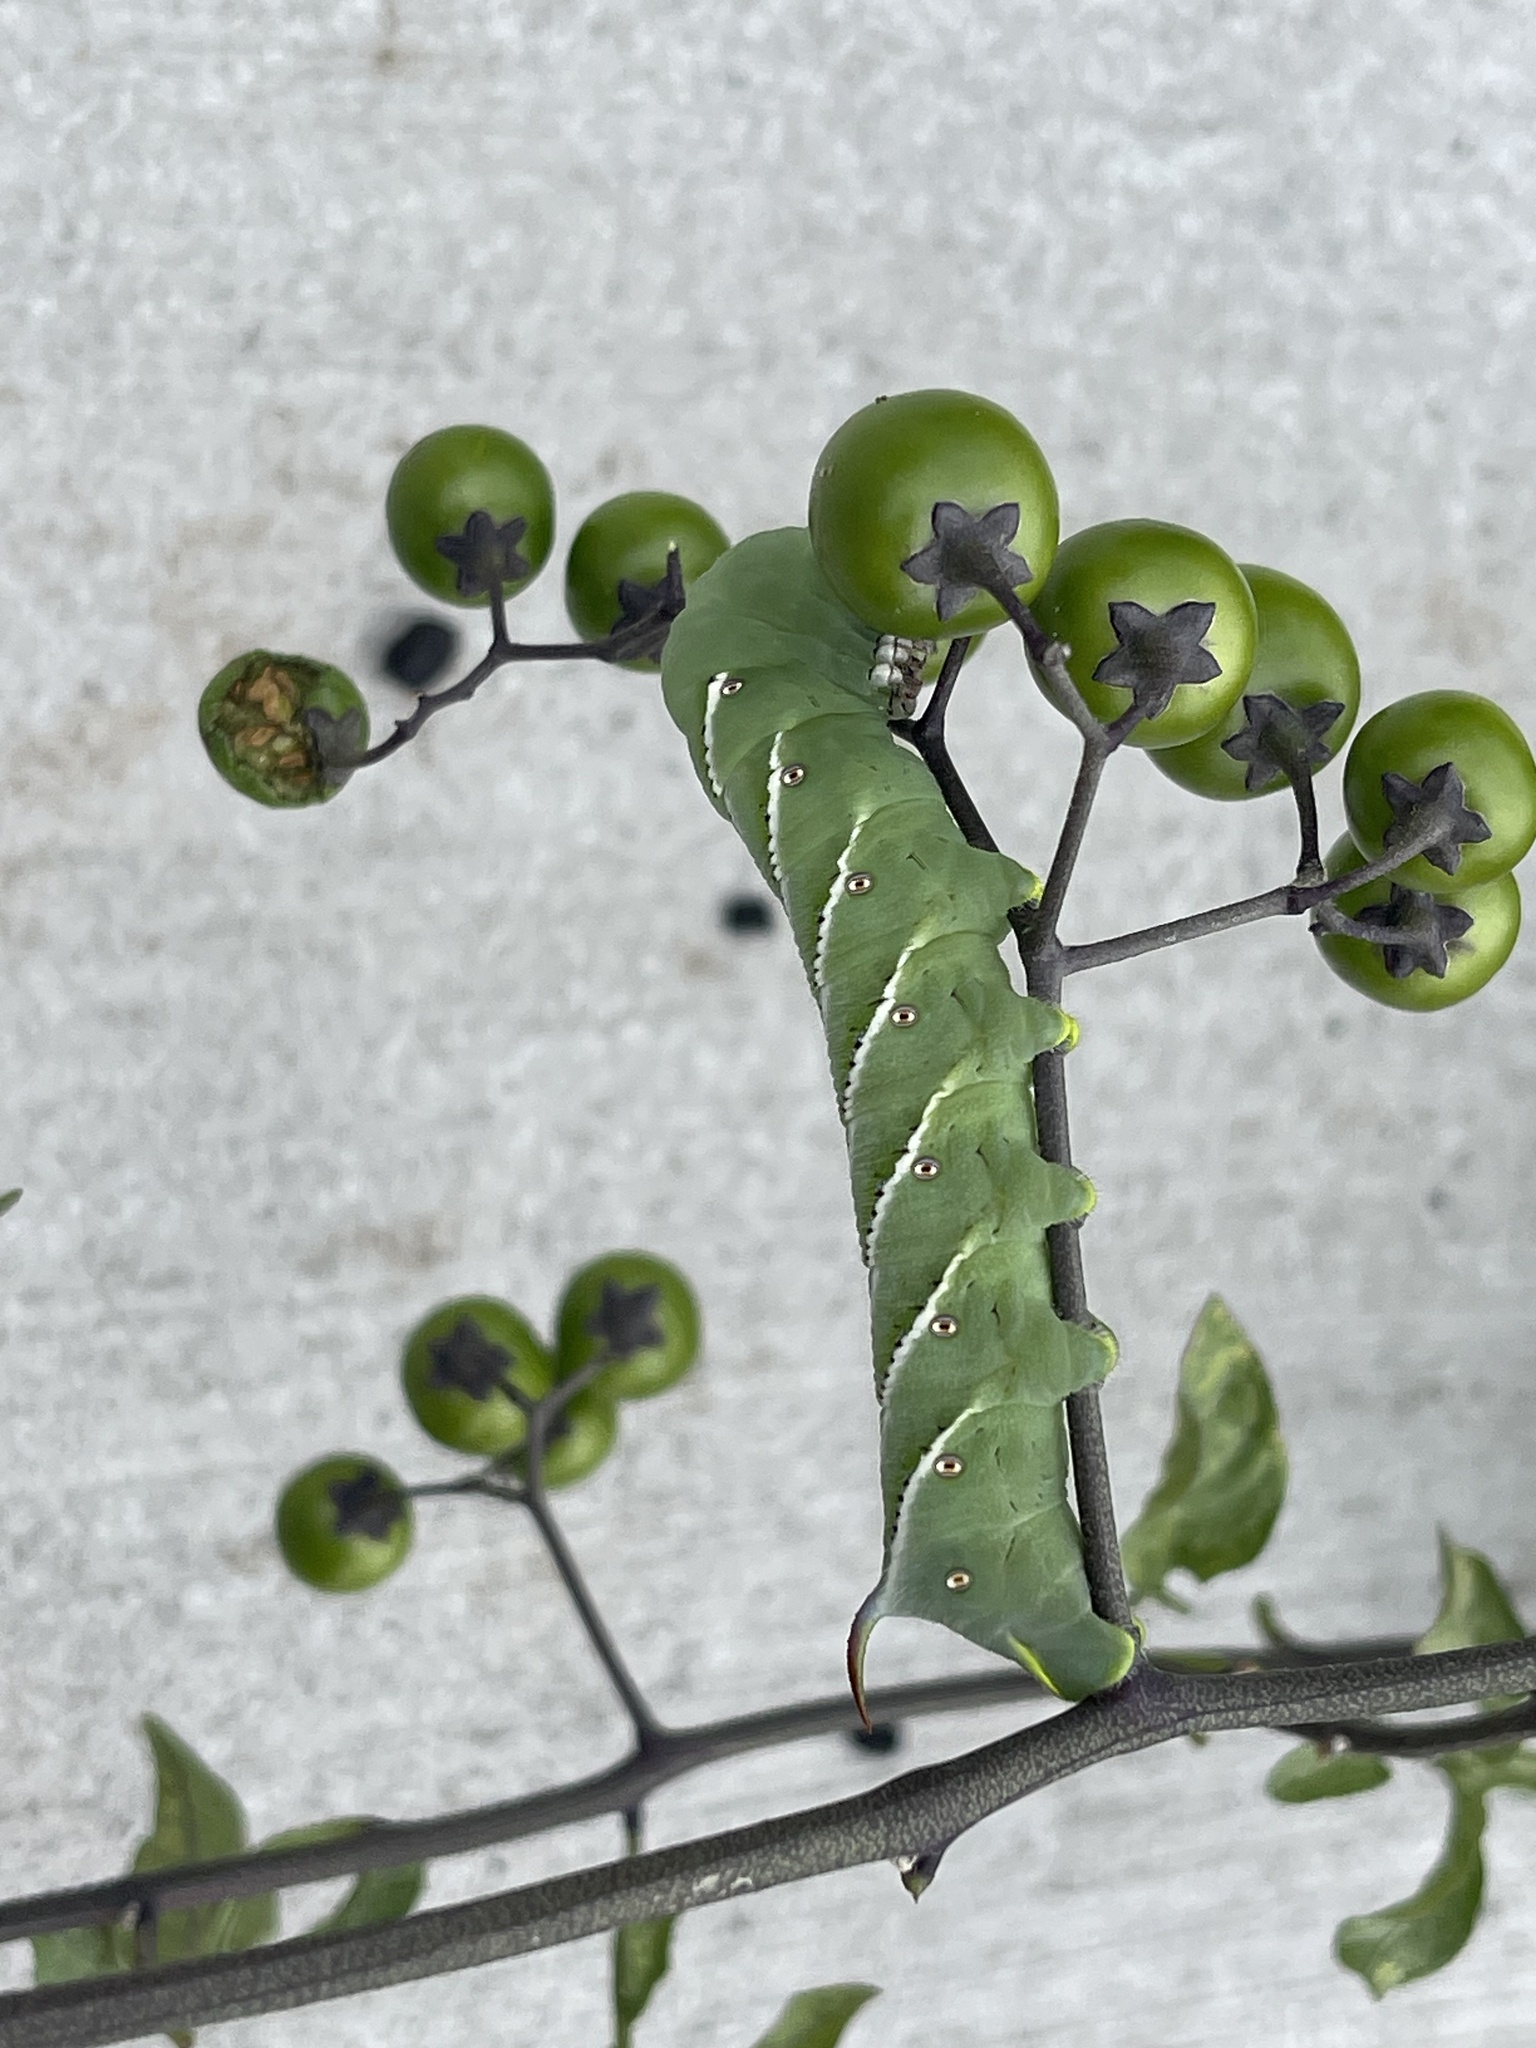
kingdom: Animalia
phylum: Arthropoda
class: Insecta
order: Lepidoptera
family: Sphingidae
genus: Manduca
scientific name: Manduca sexta
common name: Carolina sphinx
